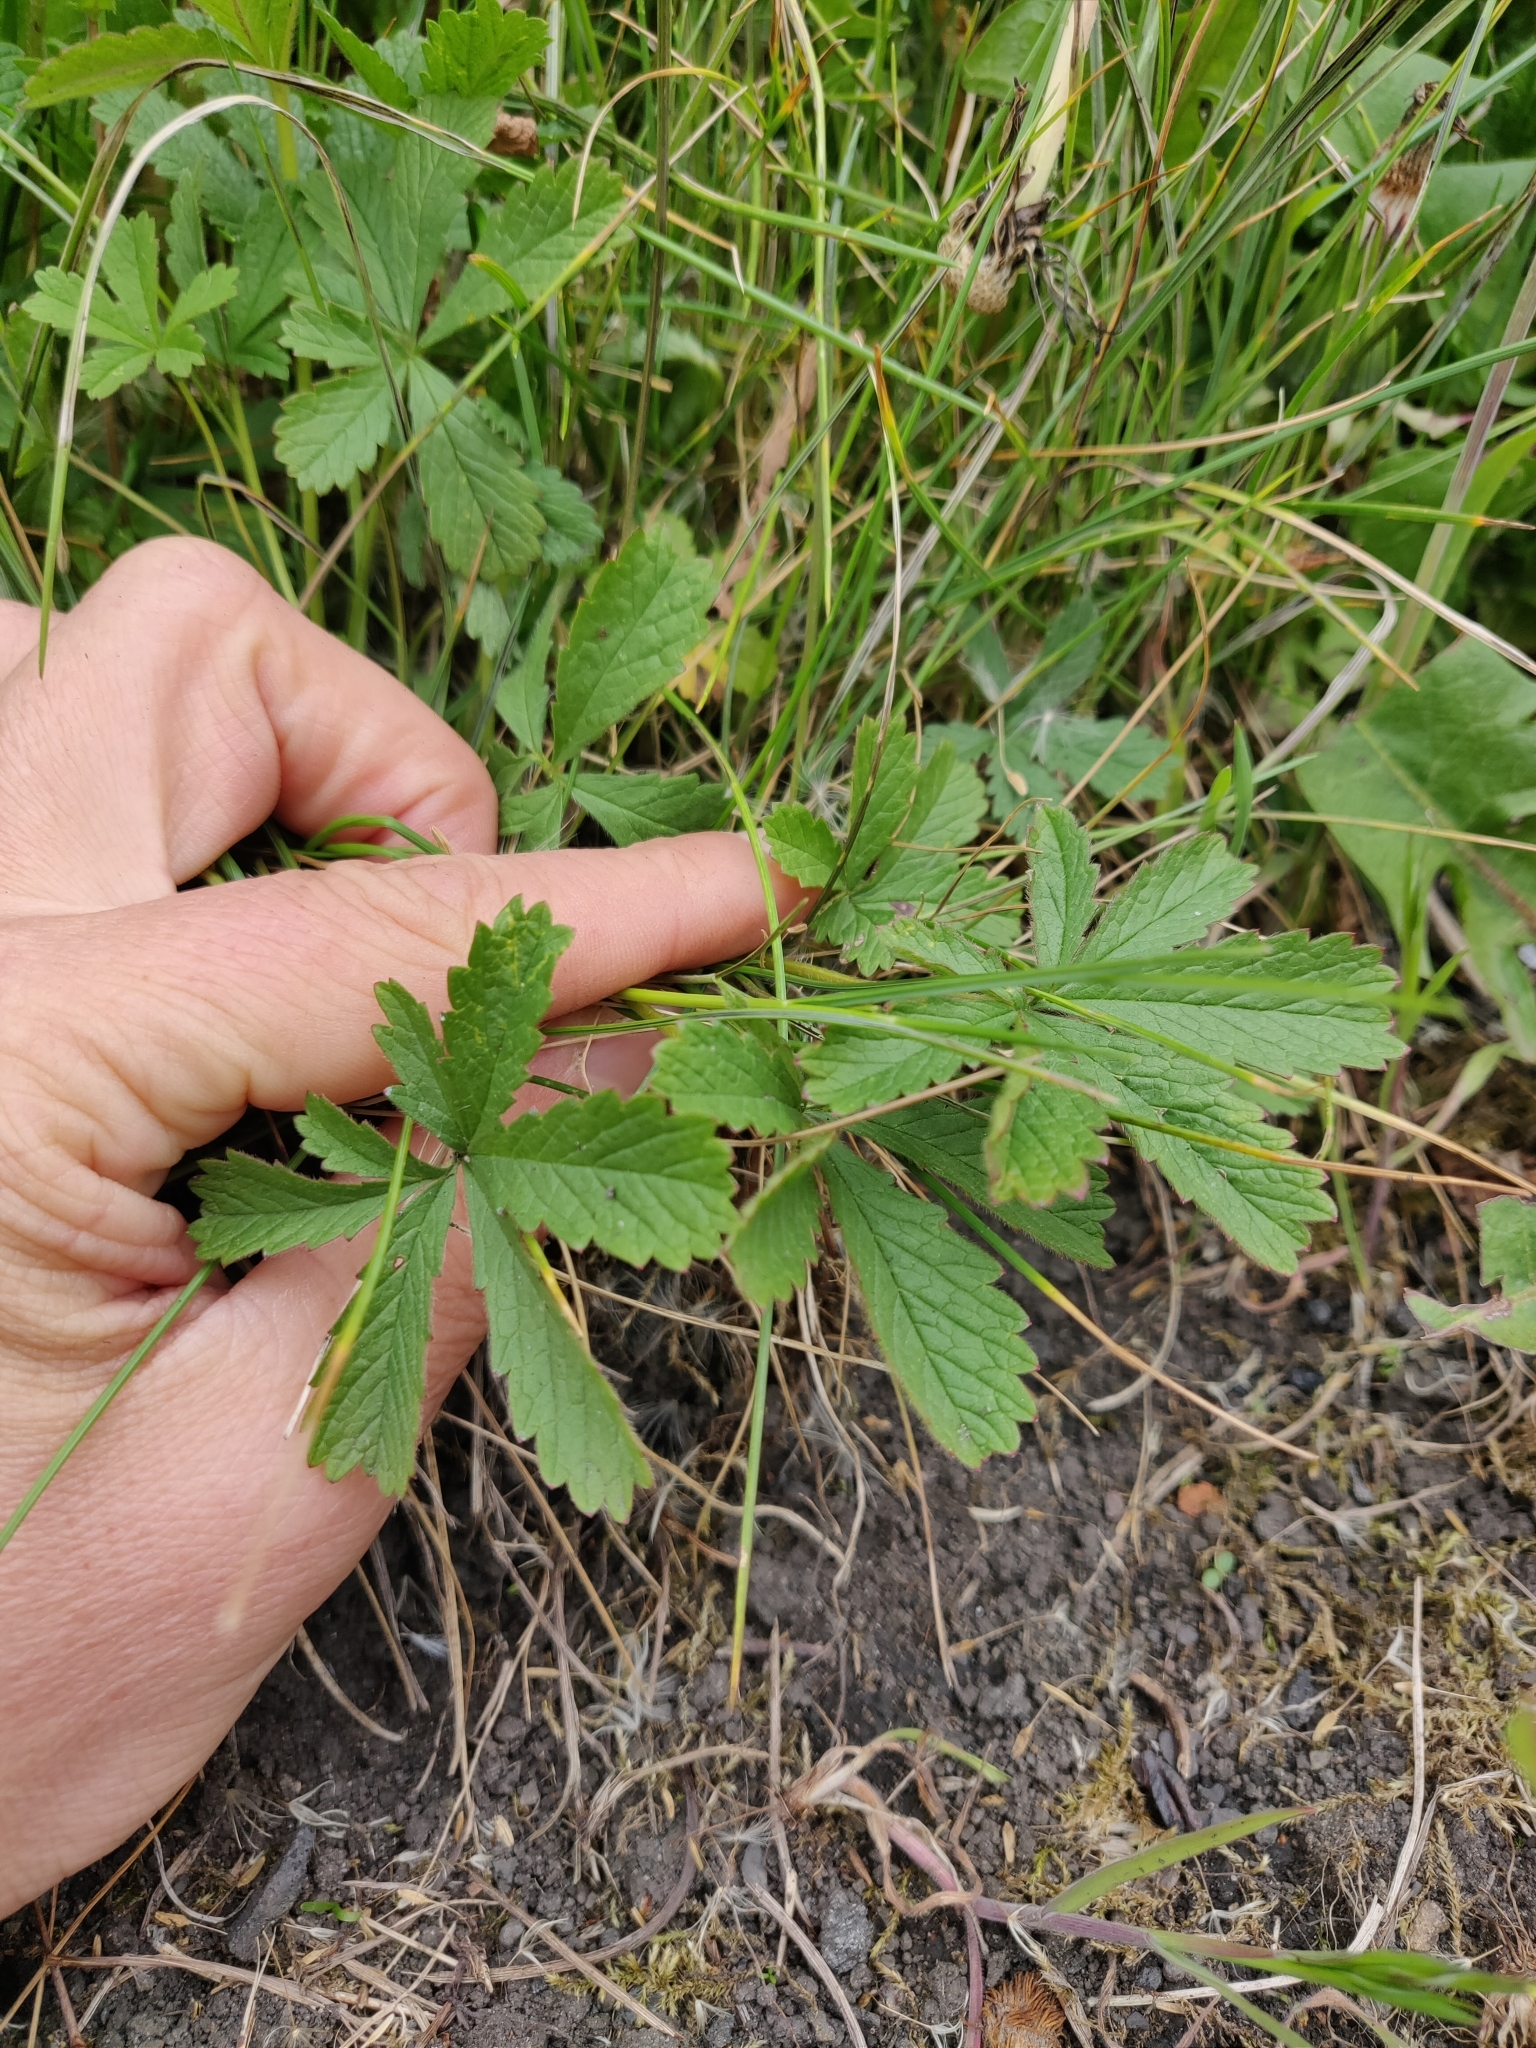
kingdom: Plantae
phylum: Tracheophyta
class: Magnoliopsida
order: Rosales
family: Rosaceae
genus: Potentilla
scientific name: Potentilla reptans
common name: Creeping cinquefoil
